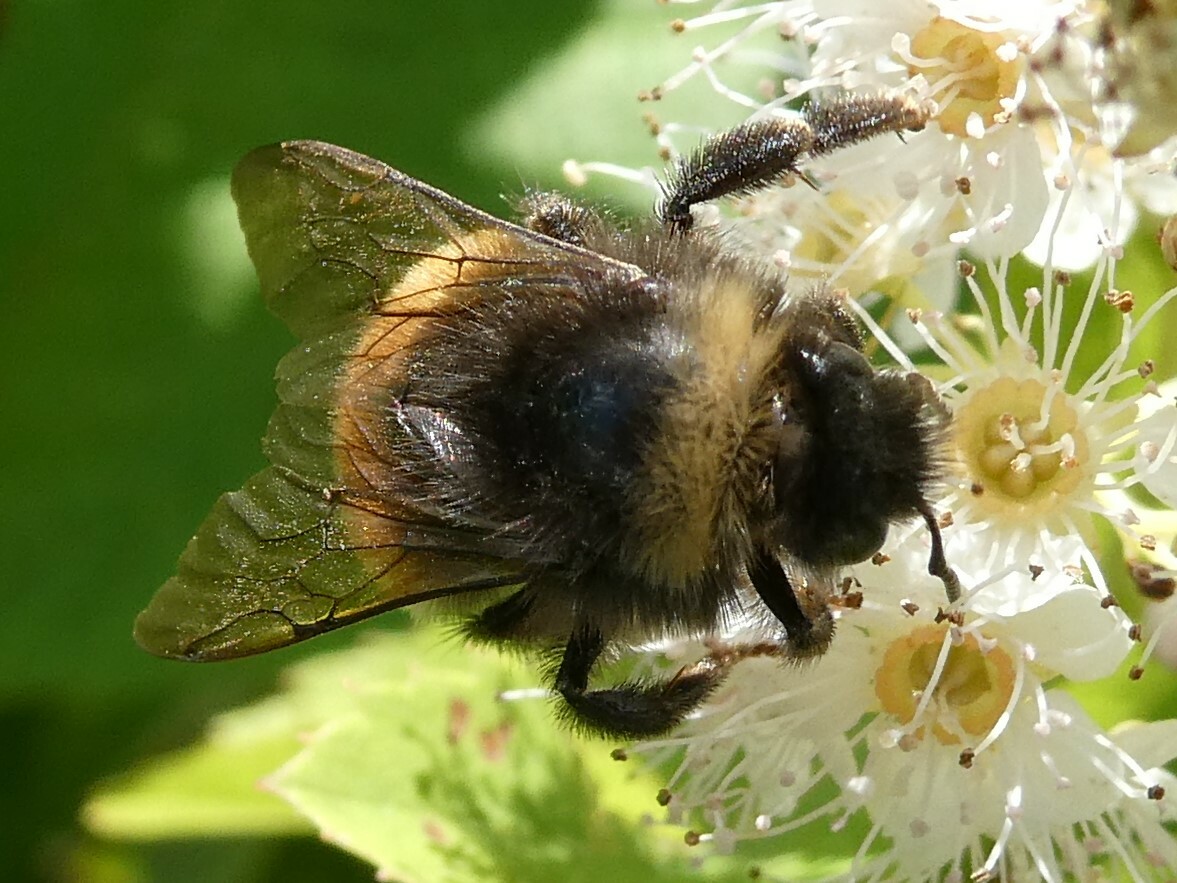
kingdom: Animalia
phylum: Arthropoda
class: Insecta
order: Hymenoptera
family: Apidae
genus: Bombus
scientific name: Bombus terricola
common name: Yellow-banded bumble bee
